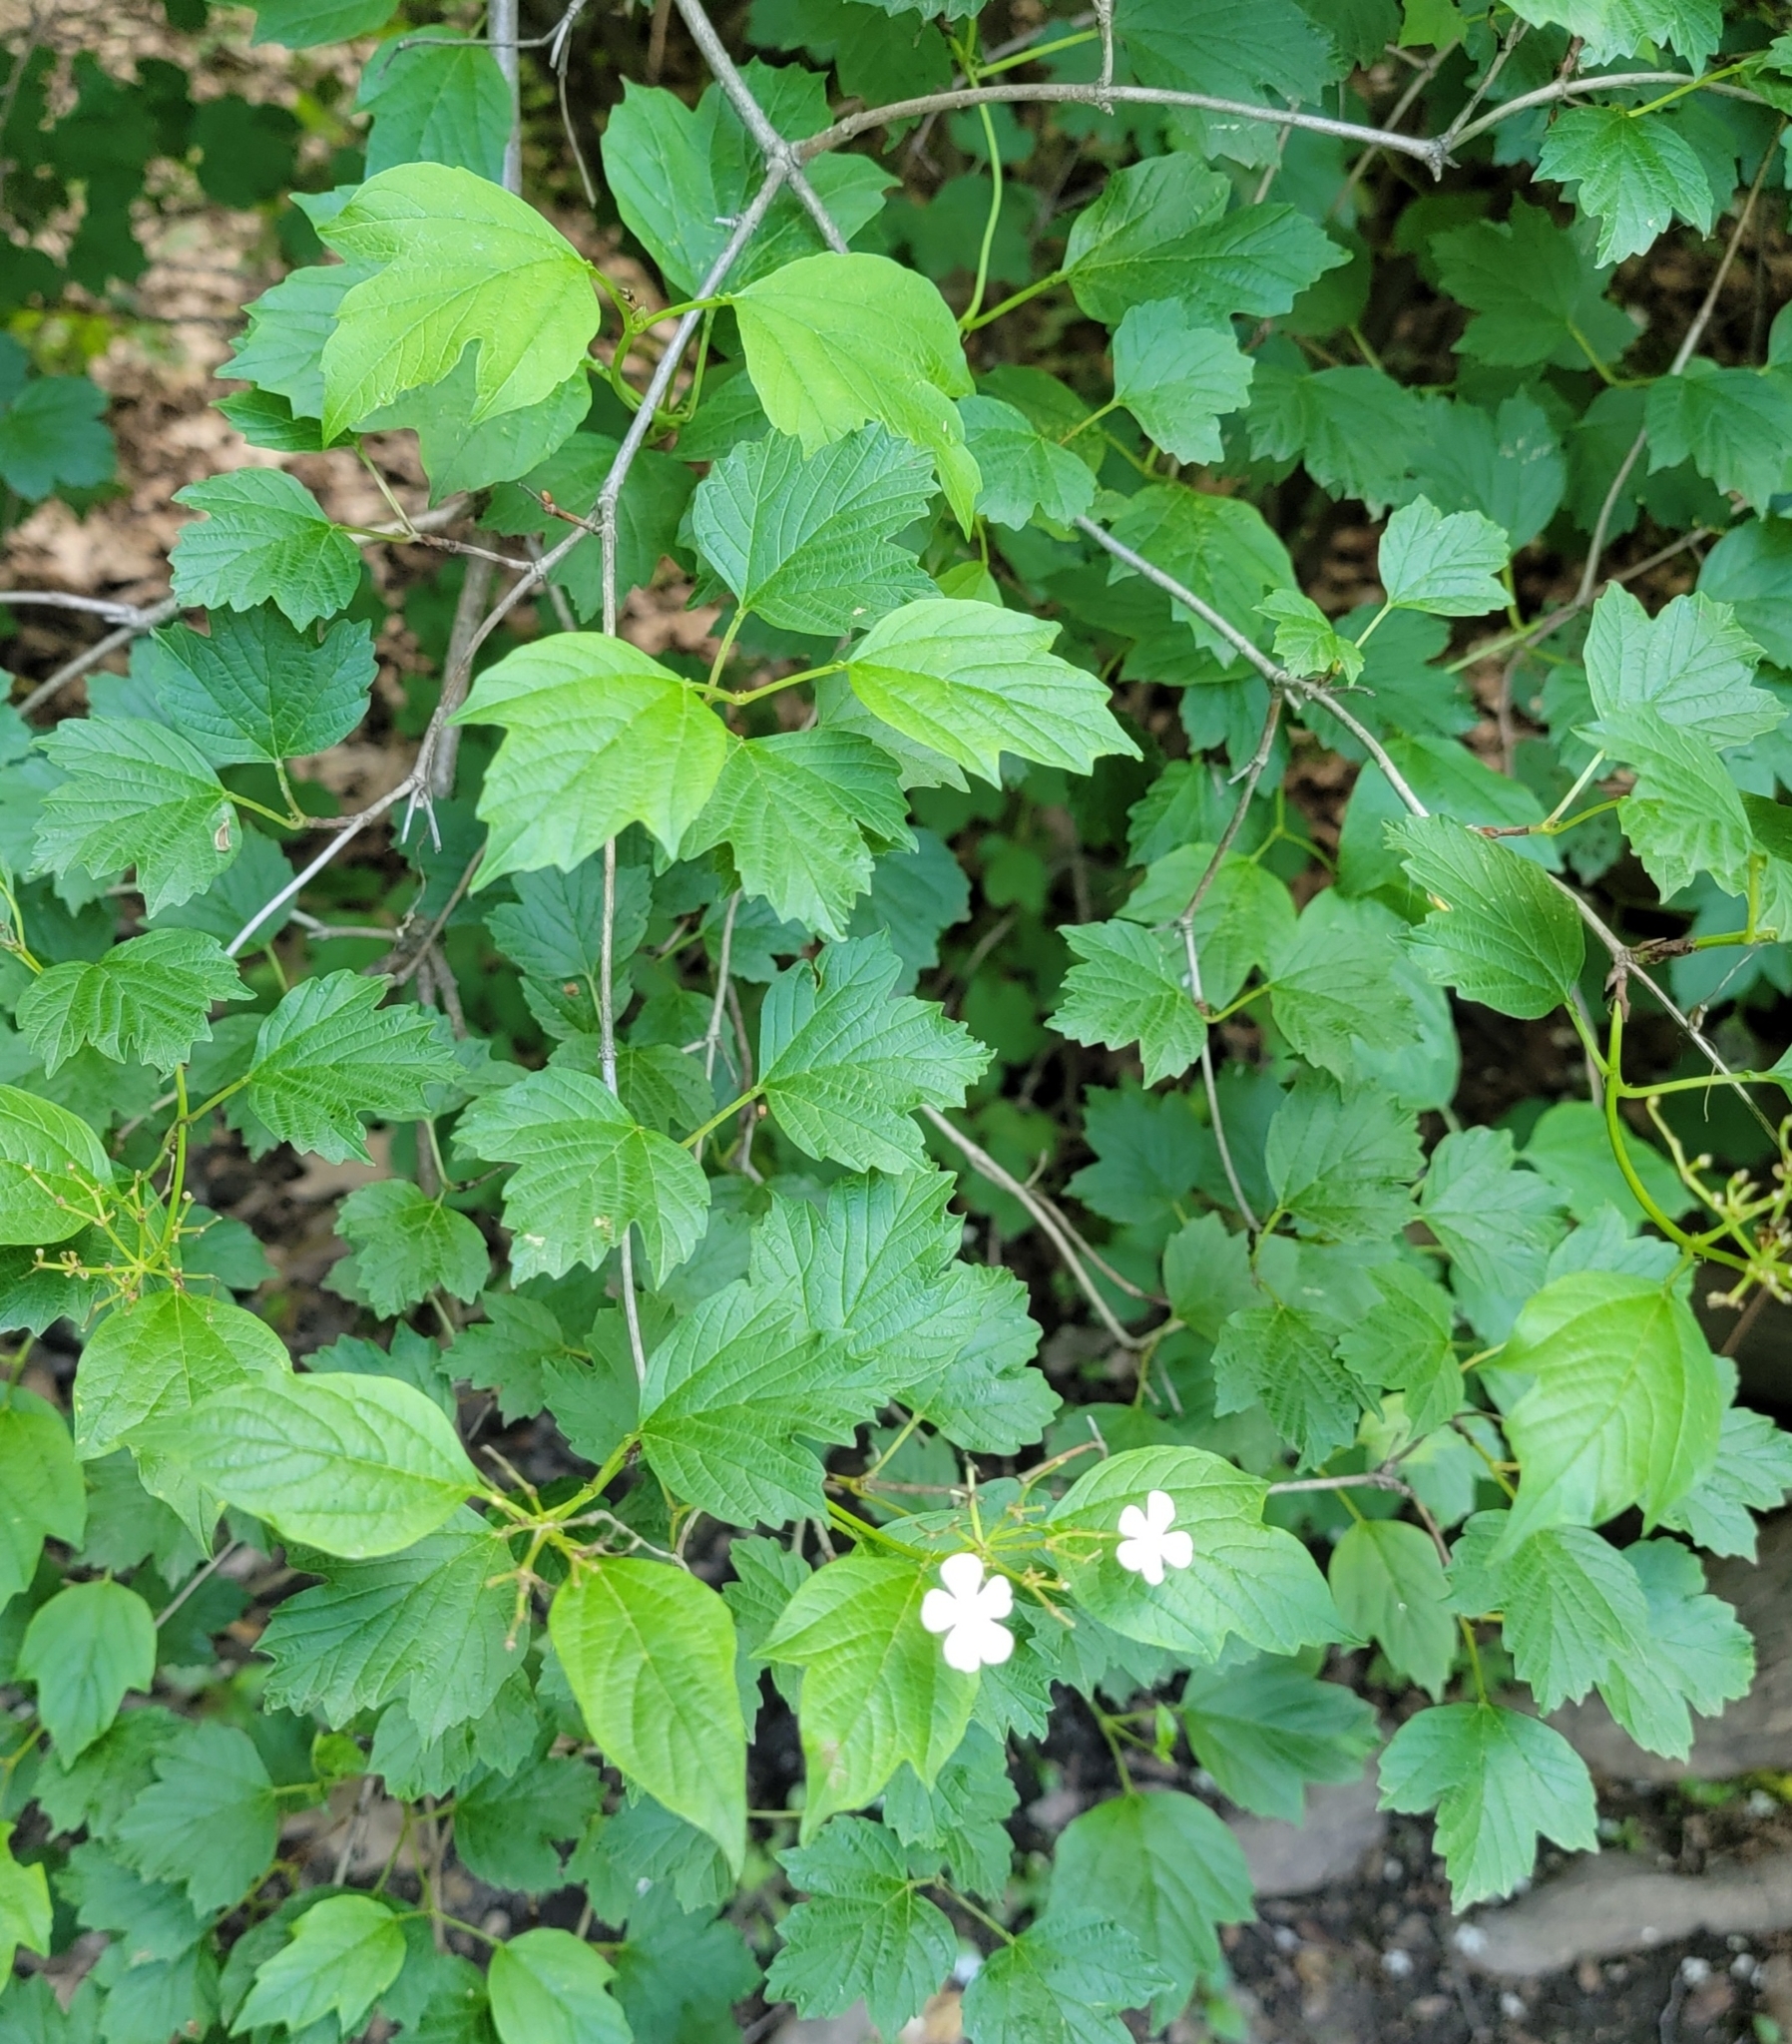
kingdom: Plantae
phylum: Tracheophyta
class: Magnoliopsida
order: Dipsacales
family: Viburnaceae
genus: Viburnum
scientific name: Viburnum opulus
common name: Guelder-rose
